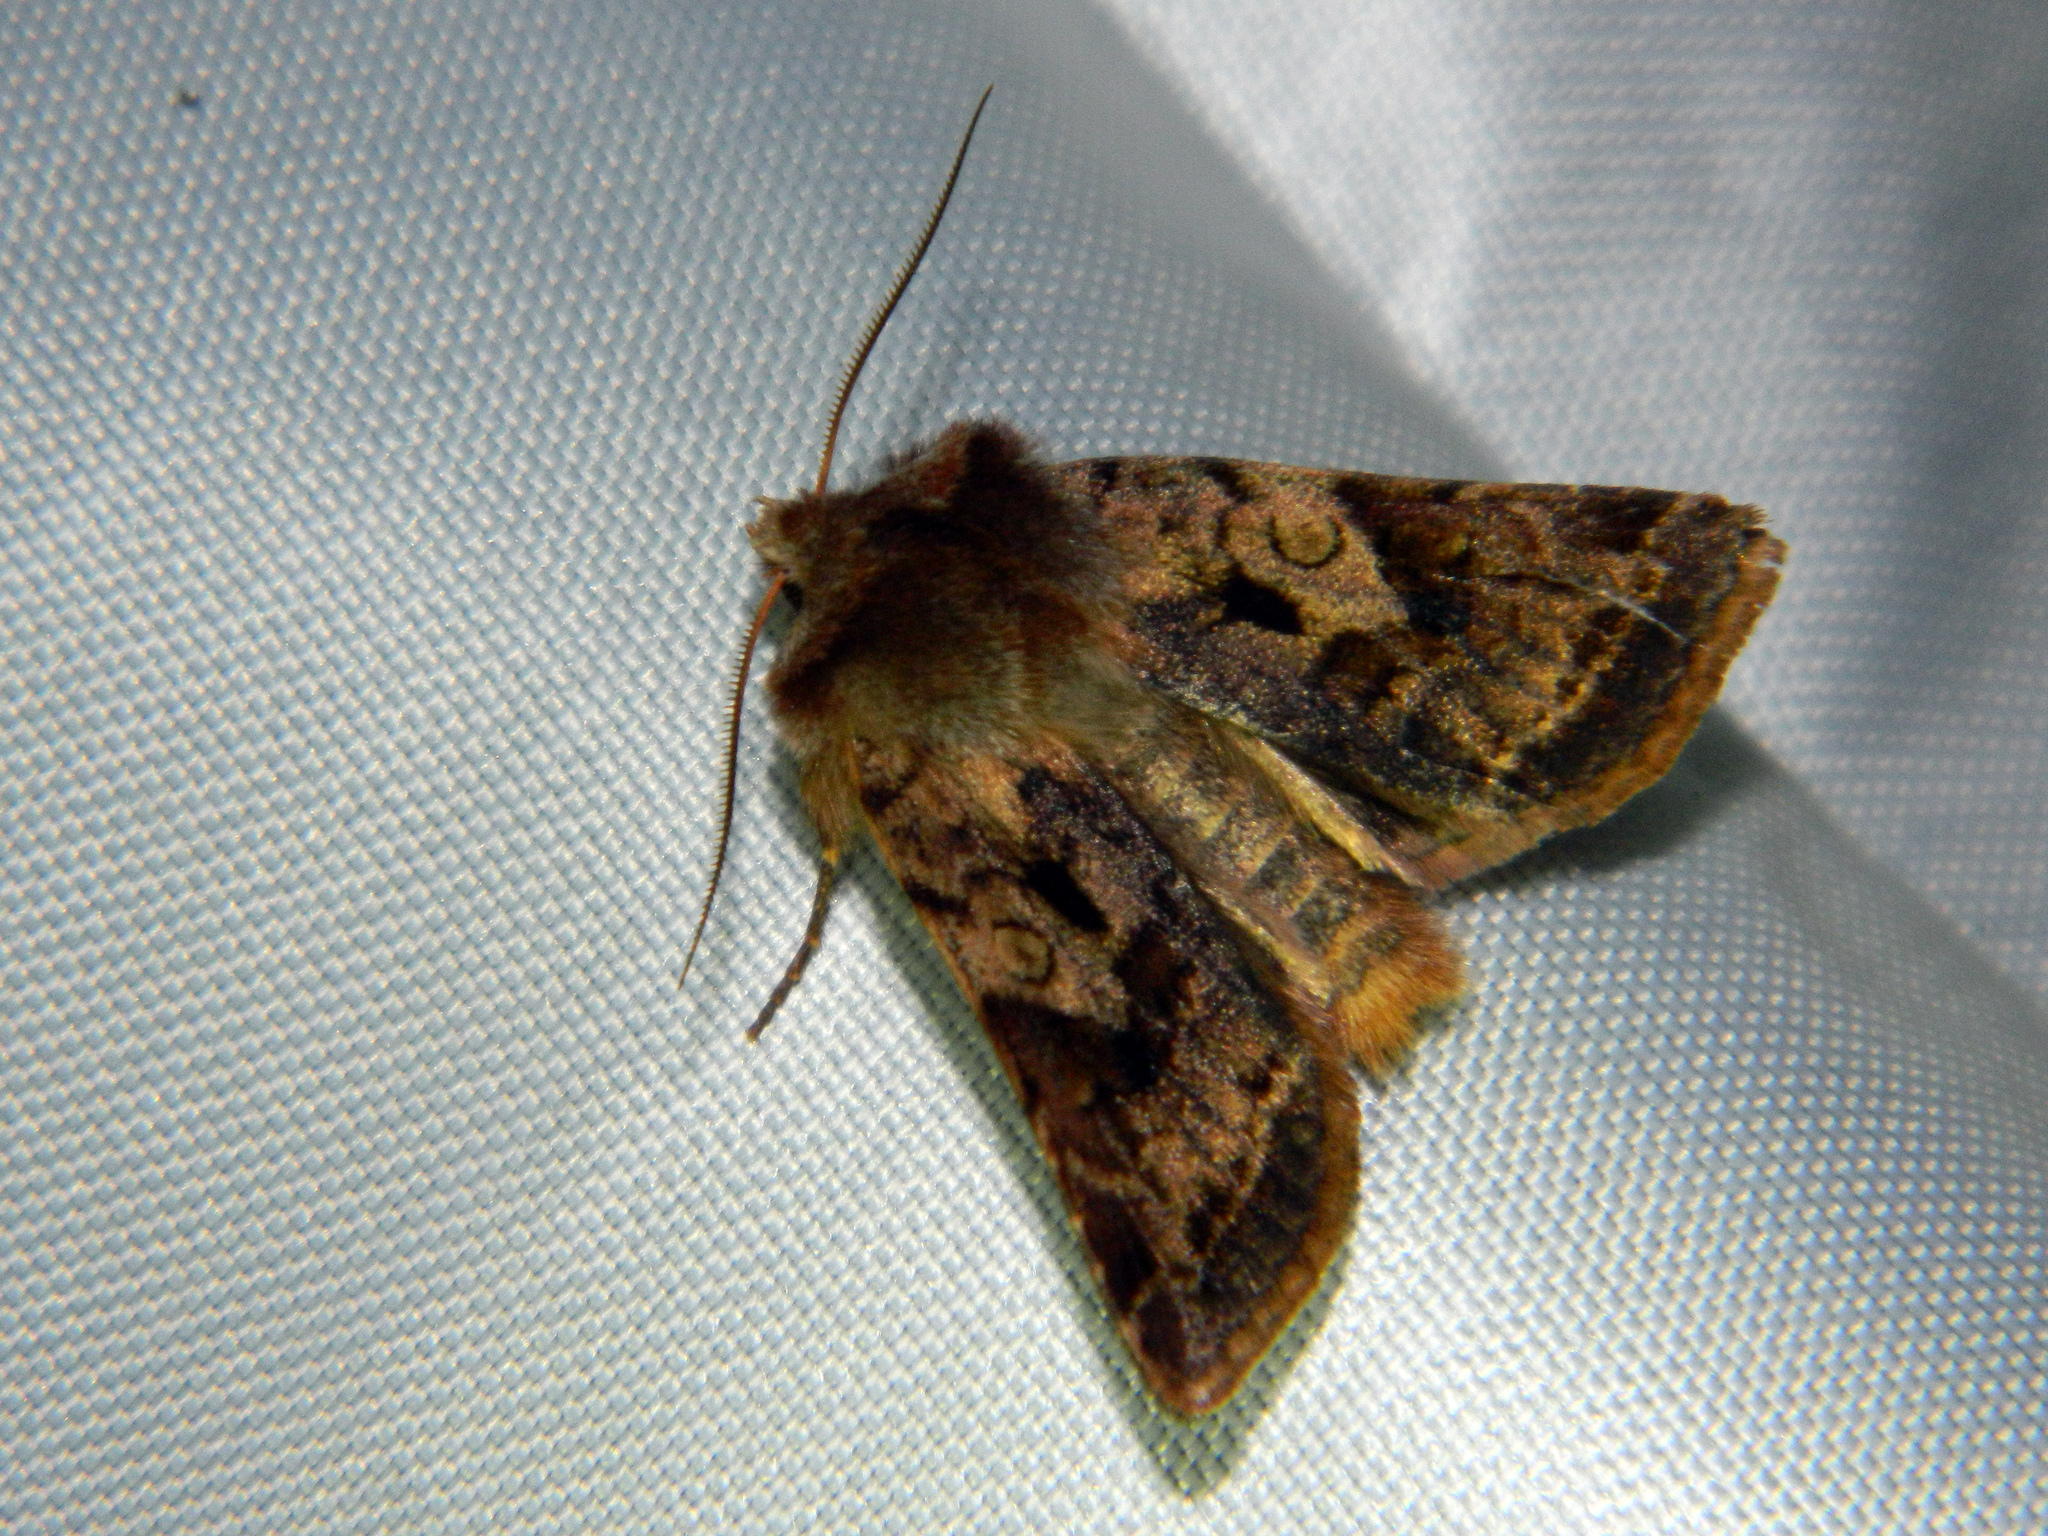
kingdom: Animalia
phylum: Arthropoda
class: Insecta
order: Lepidoptera
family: Noctuidae
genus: Cerastis
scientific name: Cerastis salicarum
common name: Willow dart
